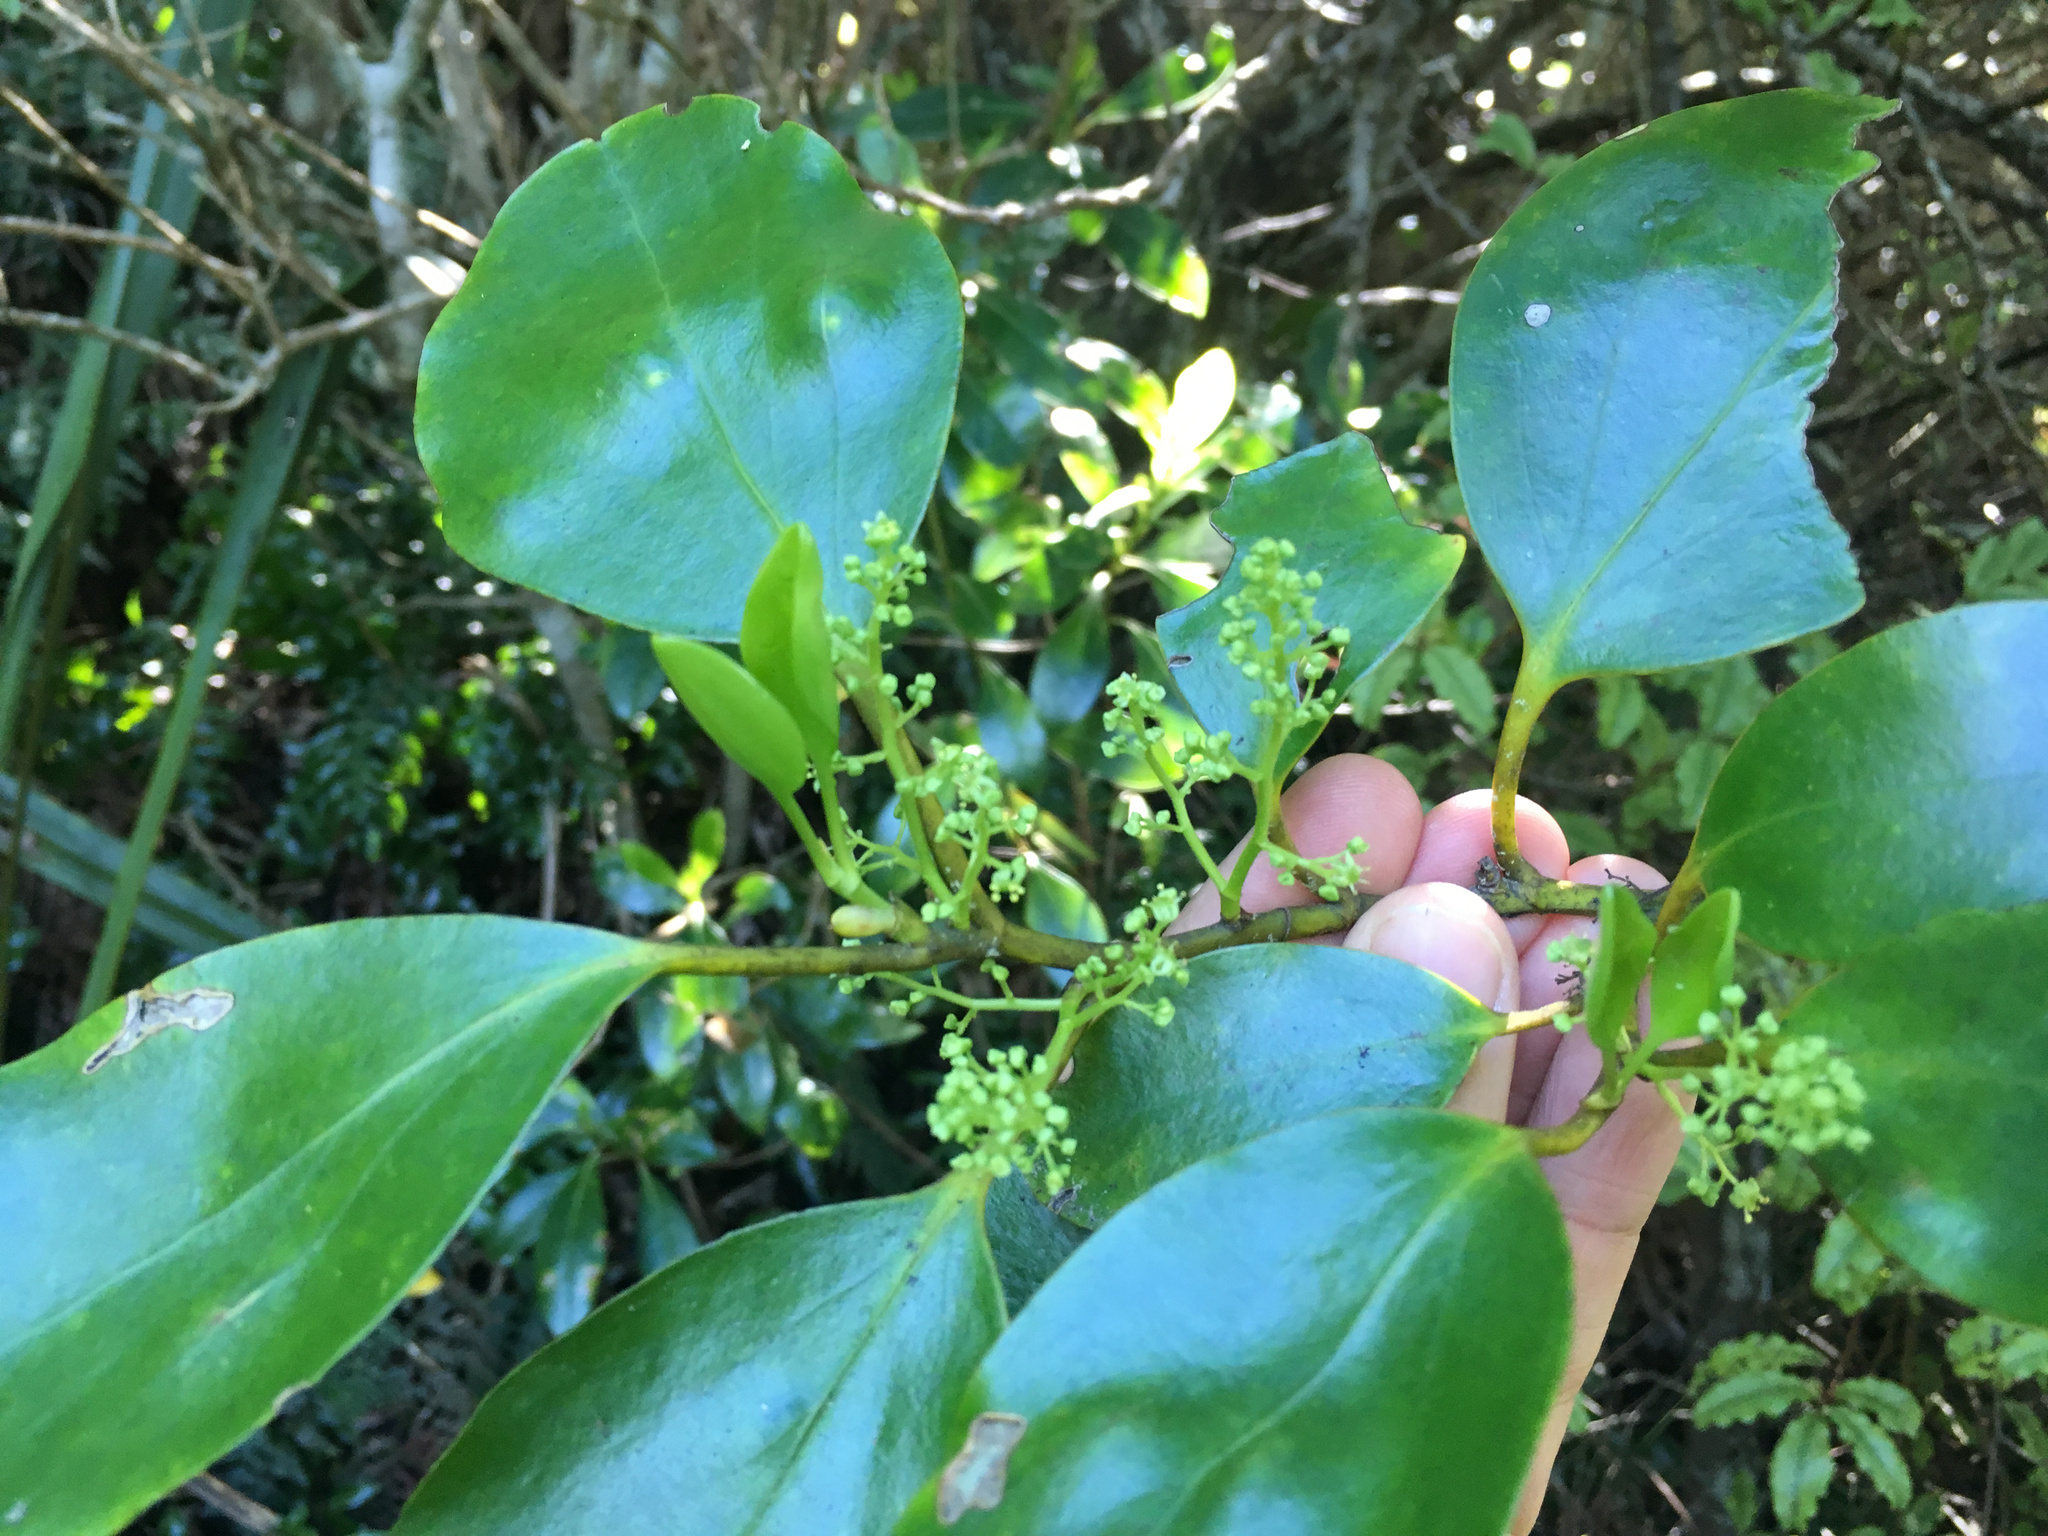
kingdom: Plantae
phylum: Tracheophyta
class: Magnoliopsida
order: Apiales
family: Griseliniaceae
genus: Griselinia
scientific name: Griselinia littoralis
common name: New zealand broadleaf
